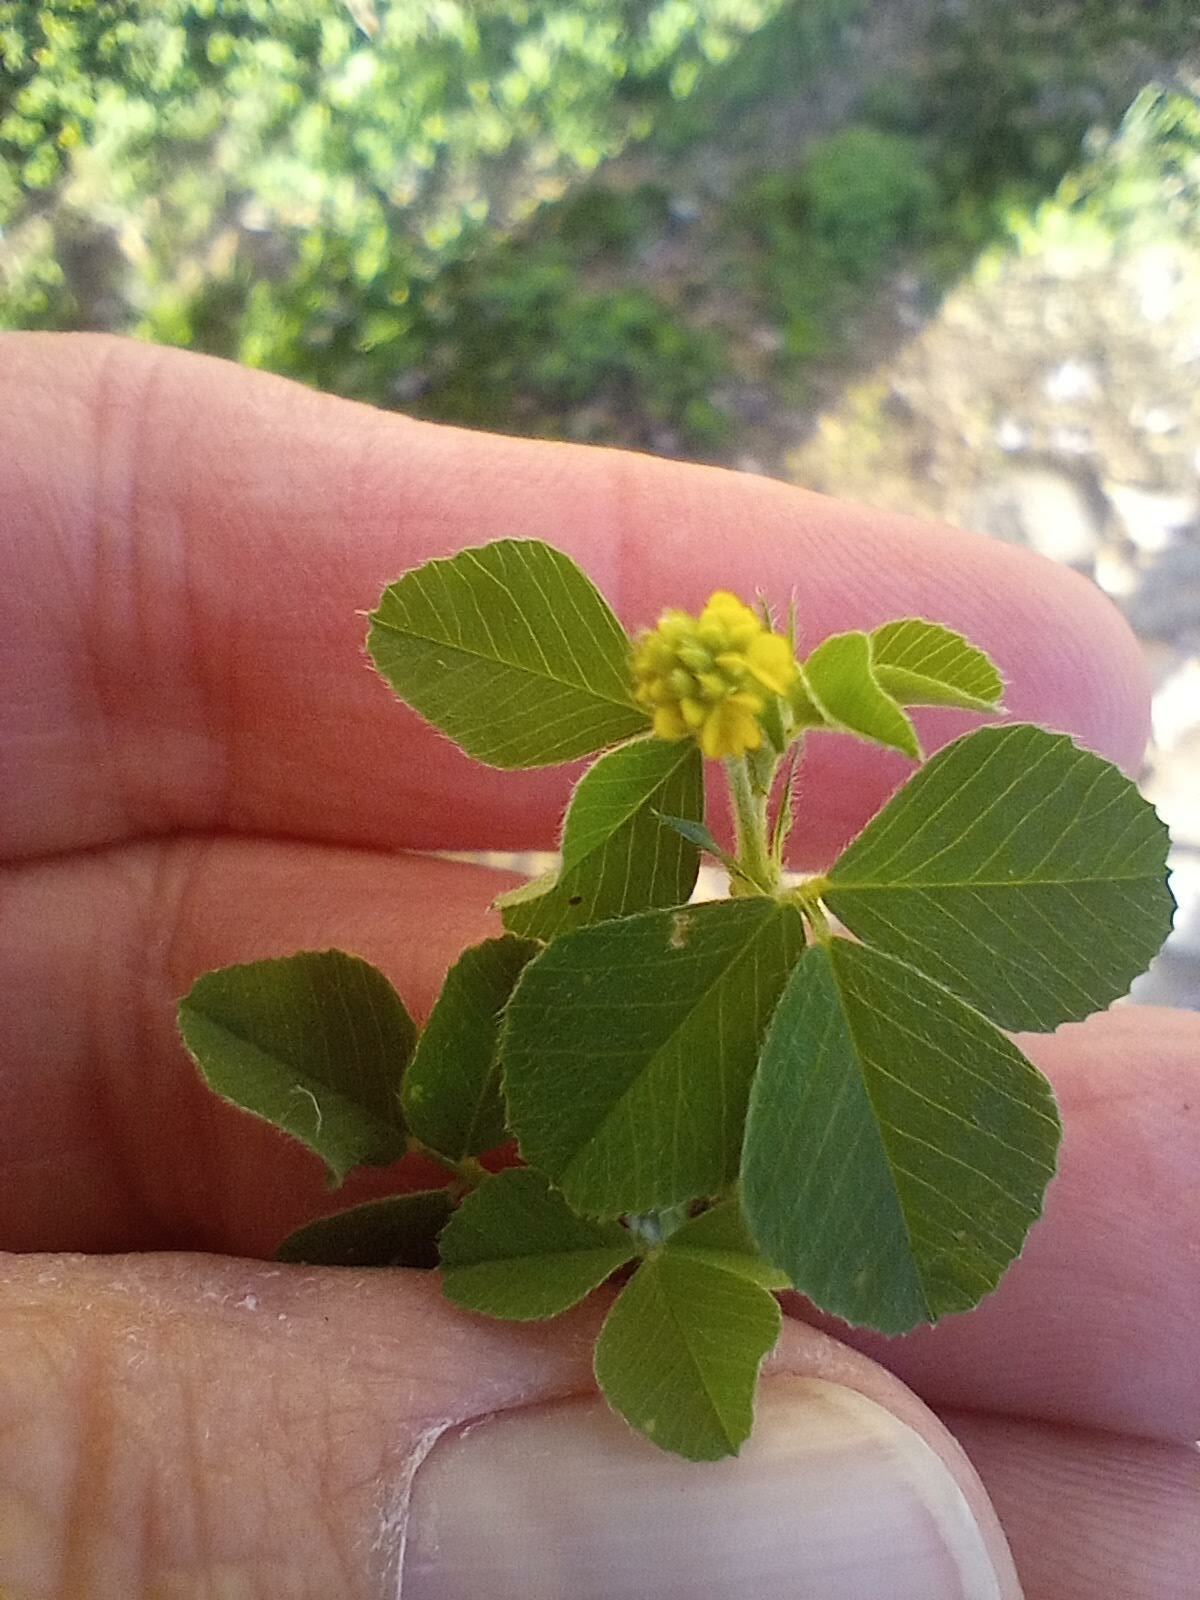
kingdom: Plantae
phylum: Tracheophyta
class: Magnoliopsida
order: Fabales
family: Fabaceae
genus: Medicago
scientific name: Medicago lupulina
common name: Black medick
